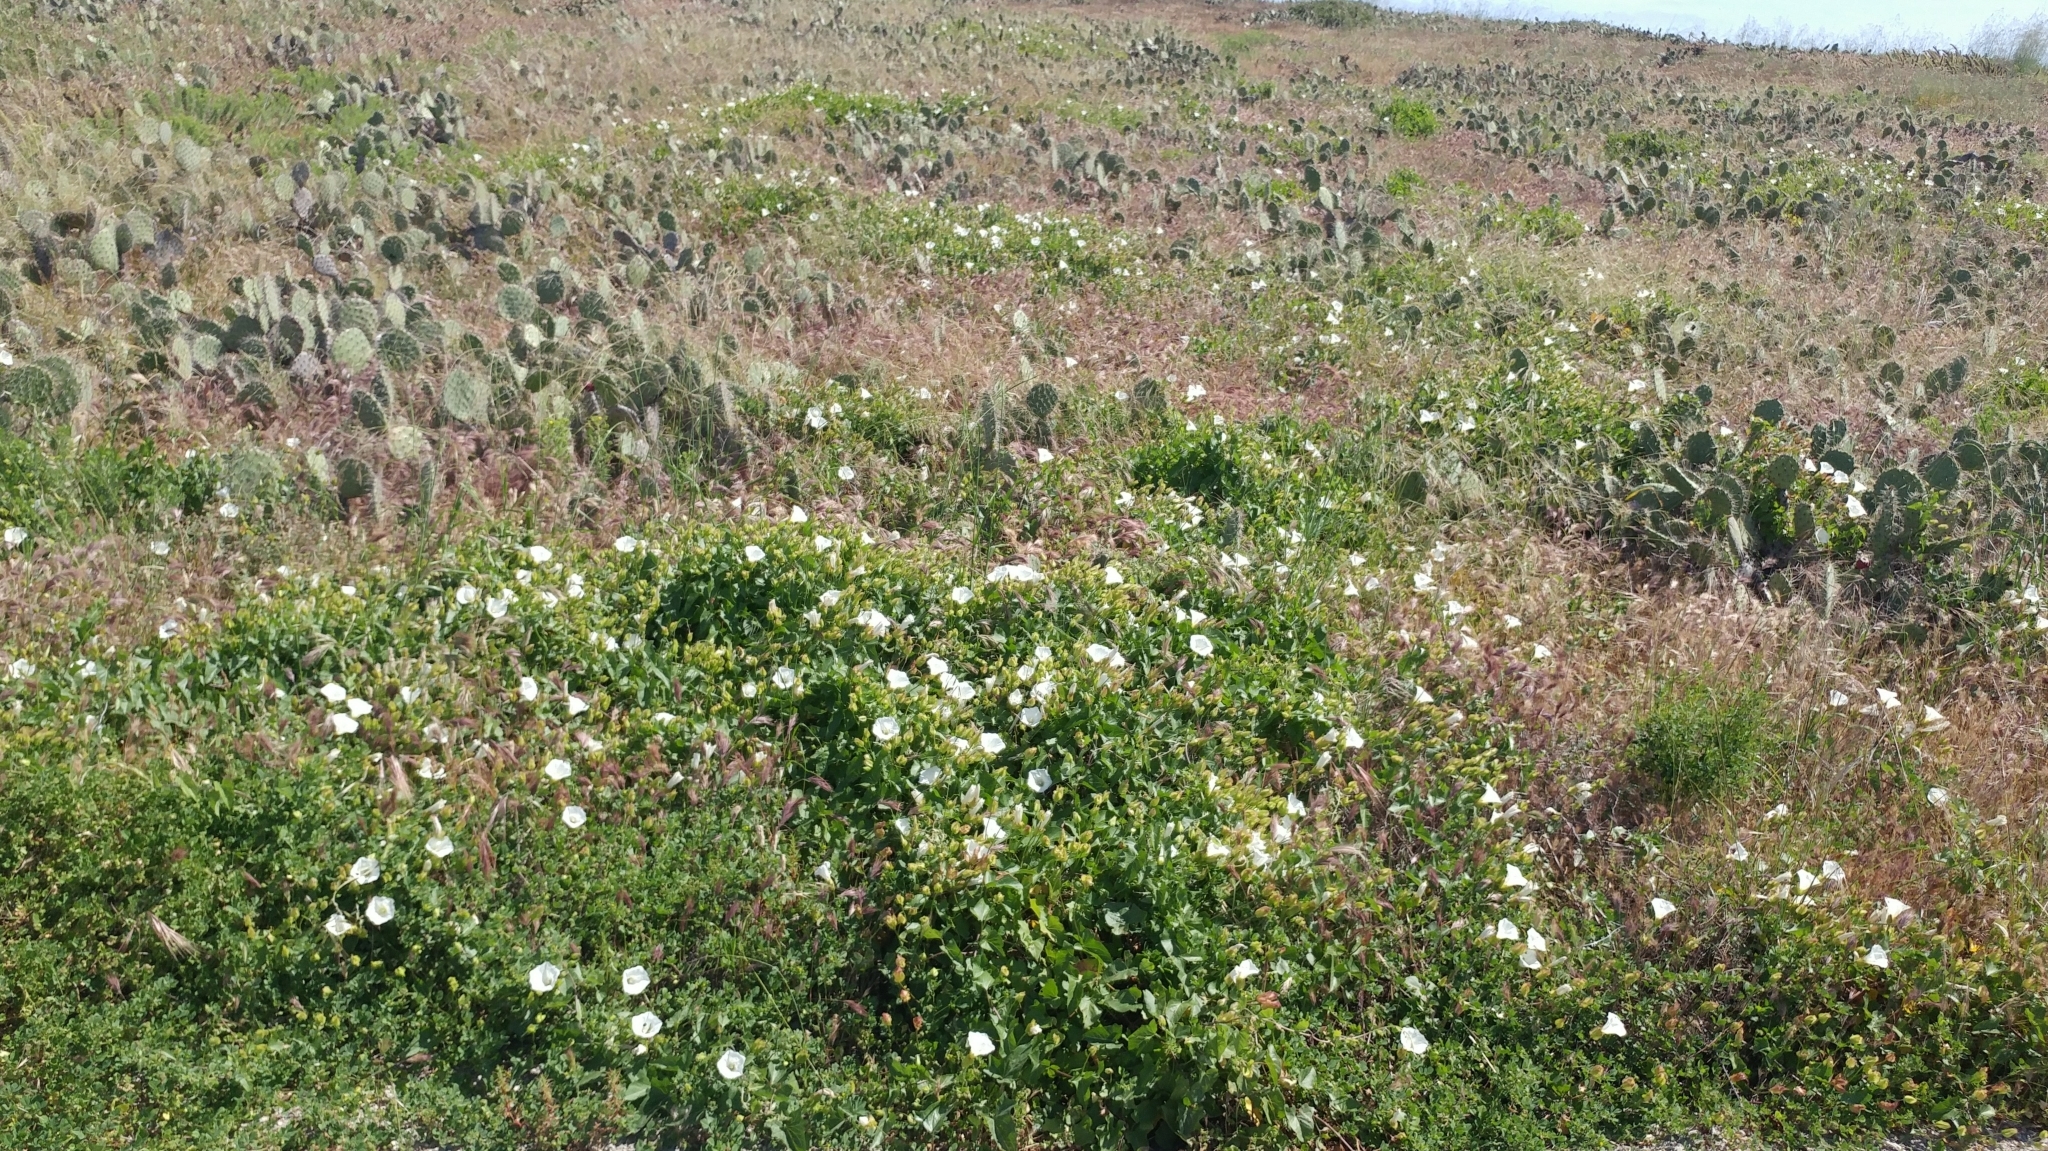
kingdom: Plantae
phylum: Tracheophyta
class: Magnoliopsida
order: Solanales
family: Convolvulaceae
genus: Calystegia
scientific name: Calystegia macrostegia
